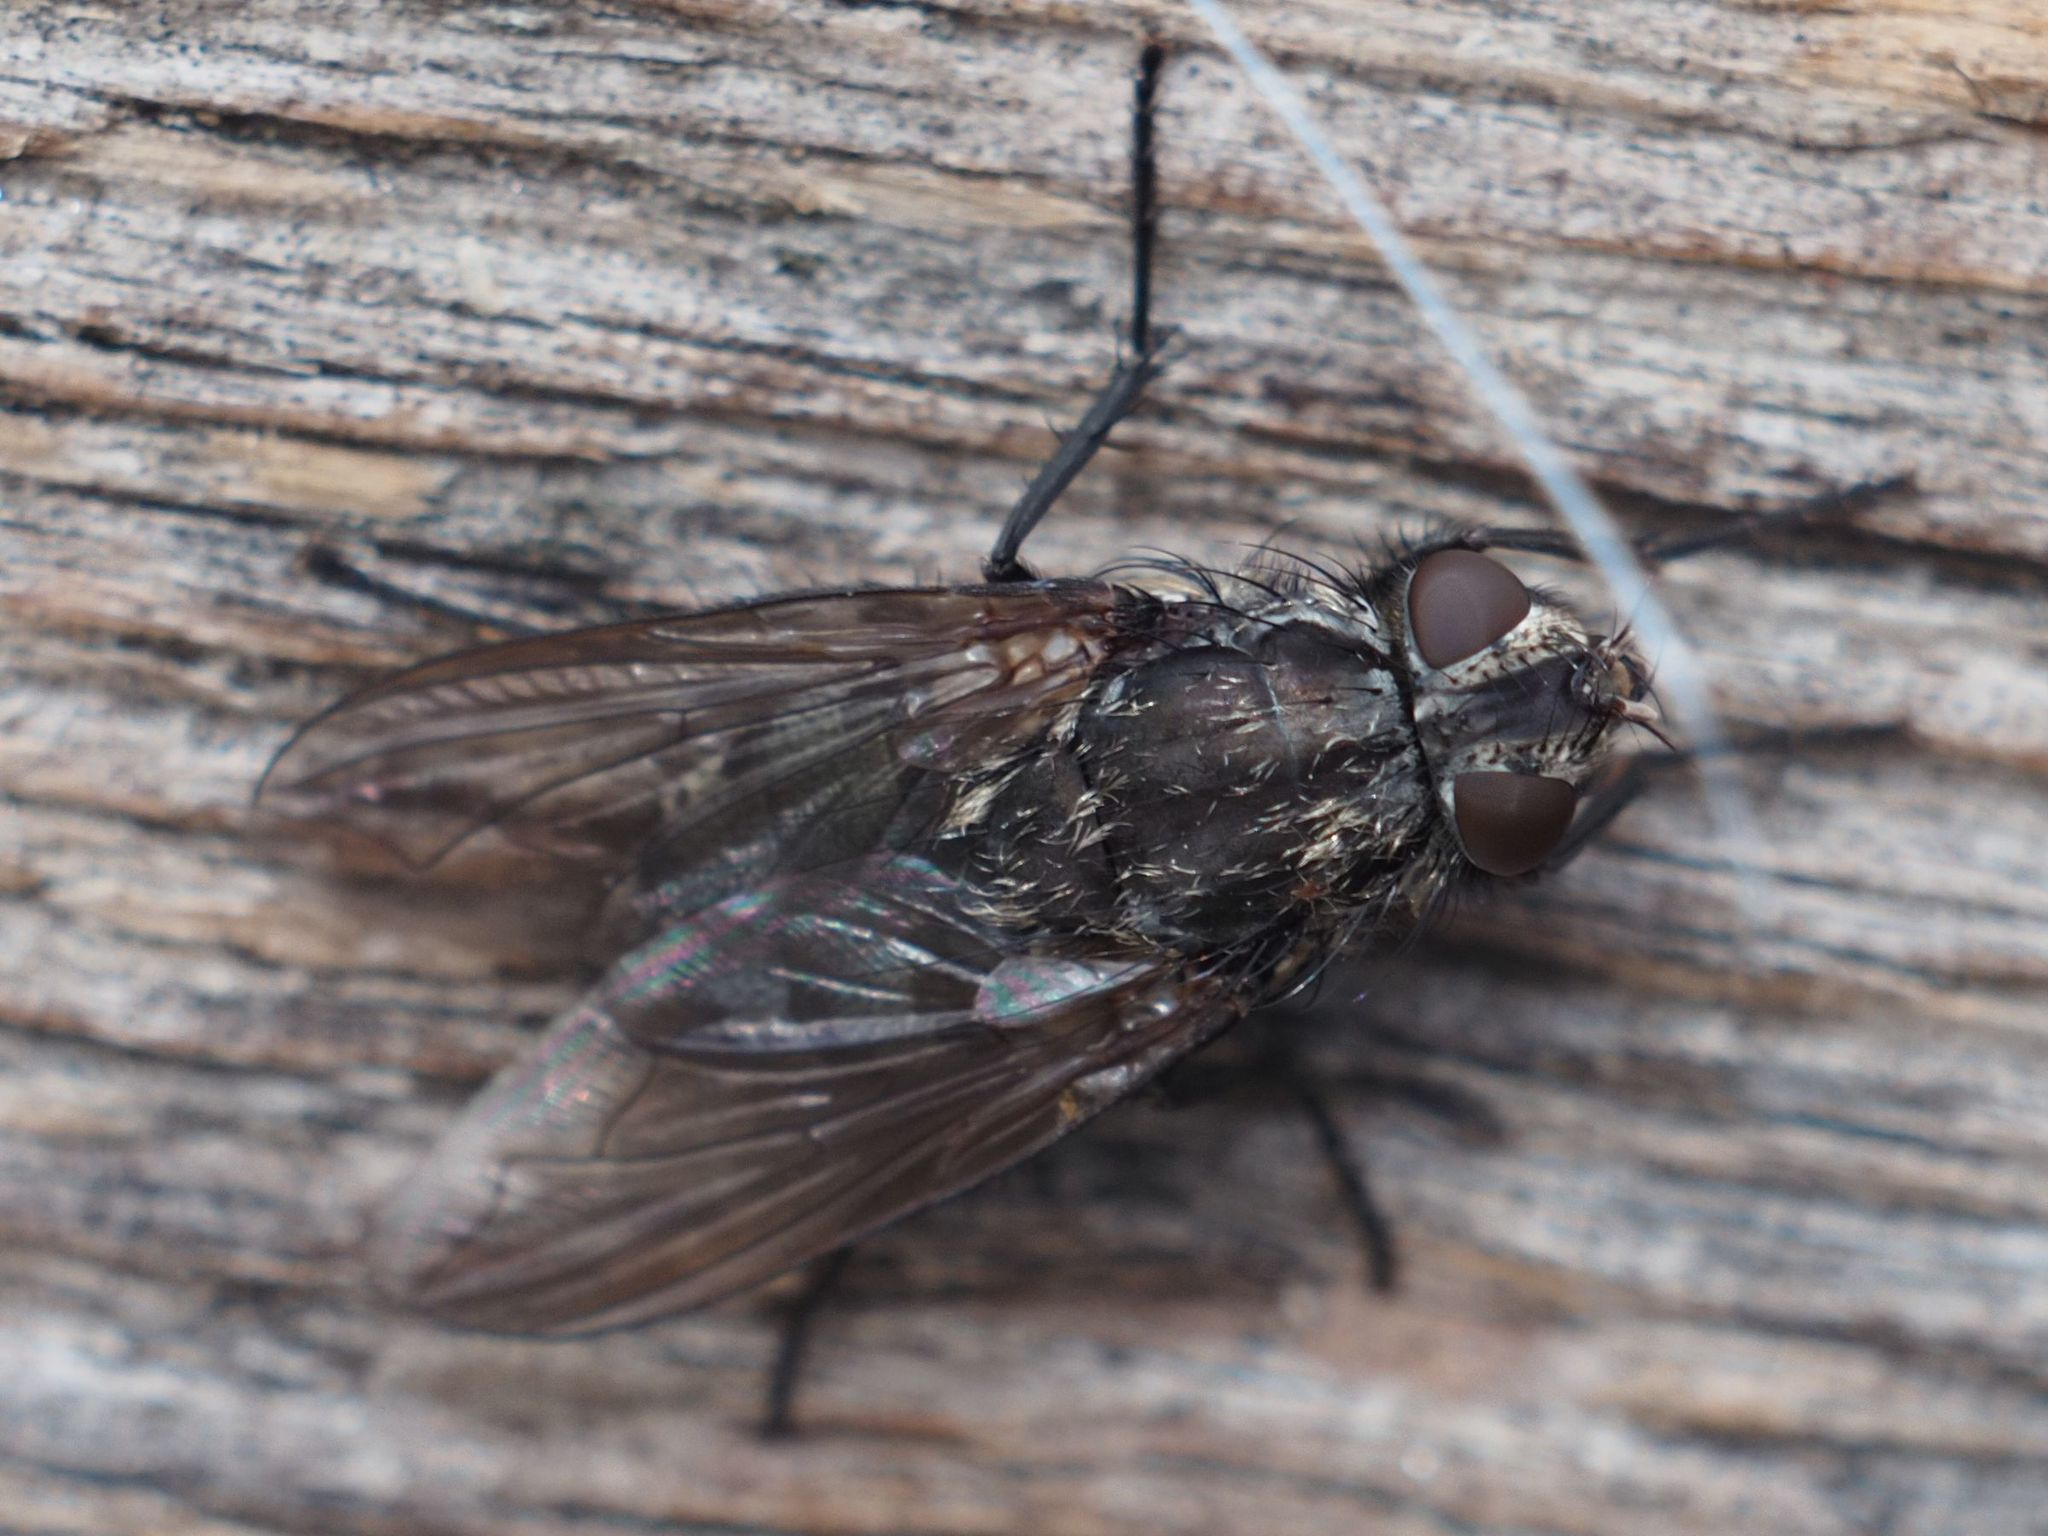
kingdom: Animalia
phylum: Arthropoda
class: Insecta
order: Diptera
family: Polleniidae
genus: Pollenia
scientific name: Pollenia vagabunda
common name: Vagabund cluster fly
